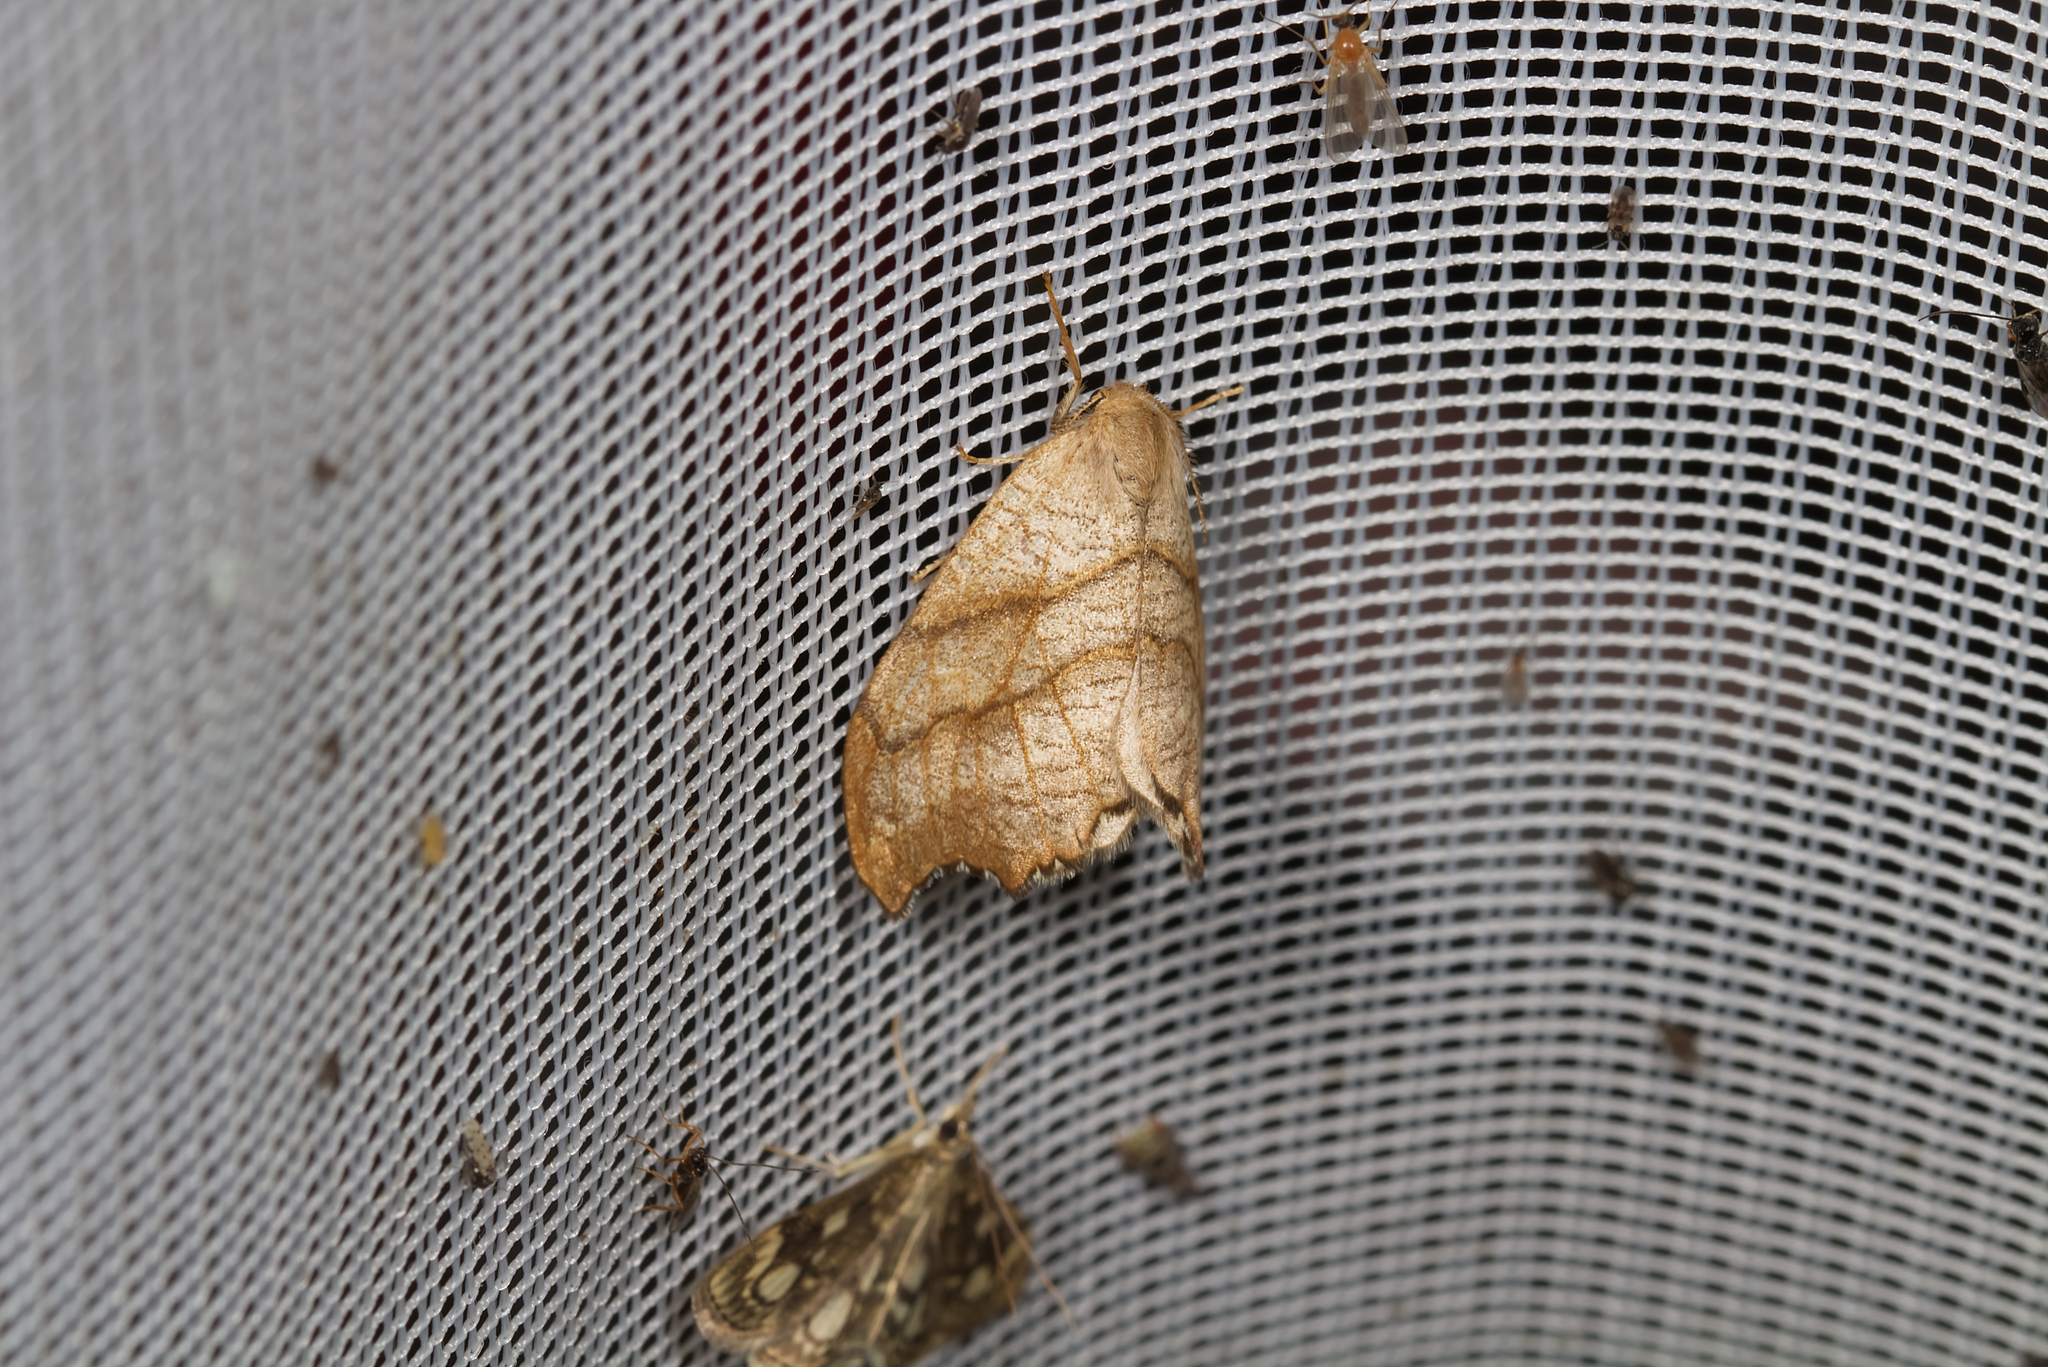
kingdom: Animalia
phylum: Arthropoda
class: Insecta
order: Lepidoptera
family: Drepanidae
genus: Falcaria
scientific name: Falcaria lacertinaria
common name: Scalloped hook-tip
